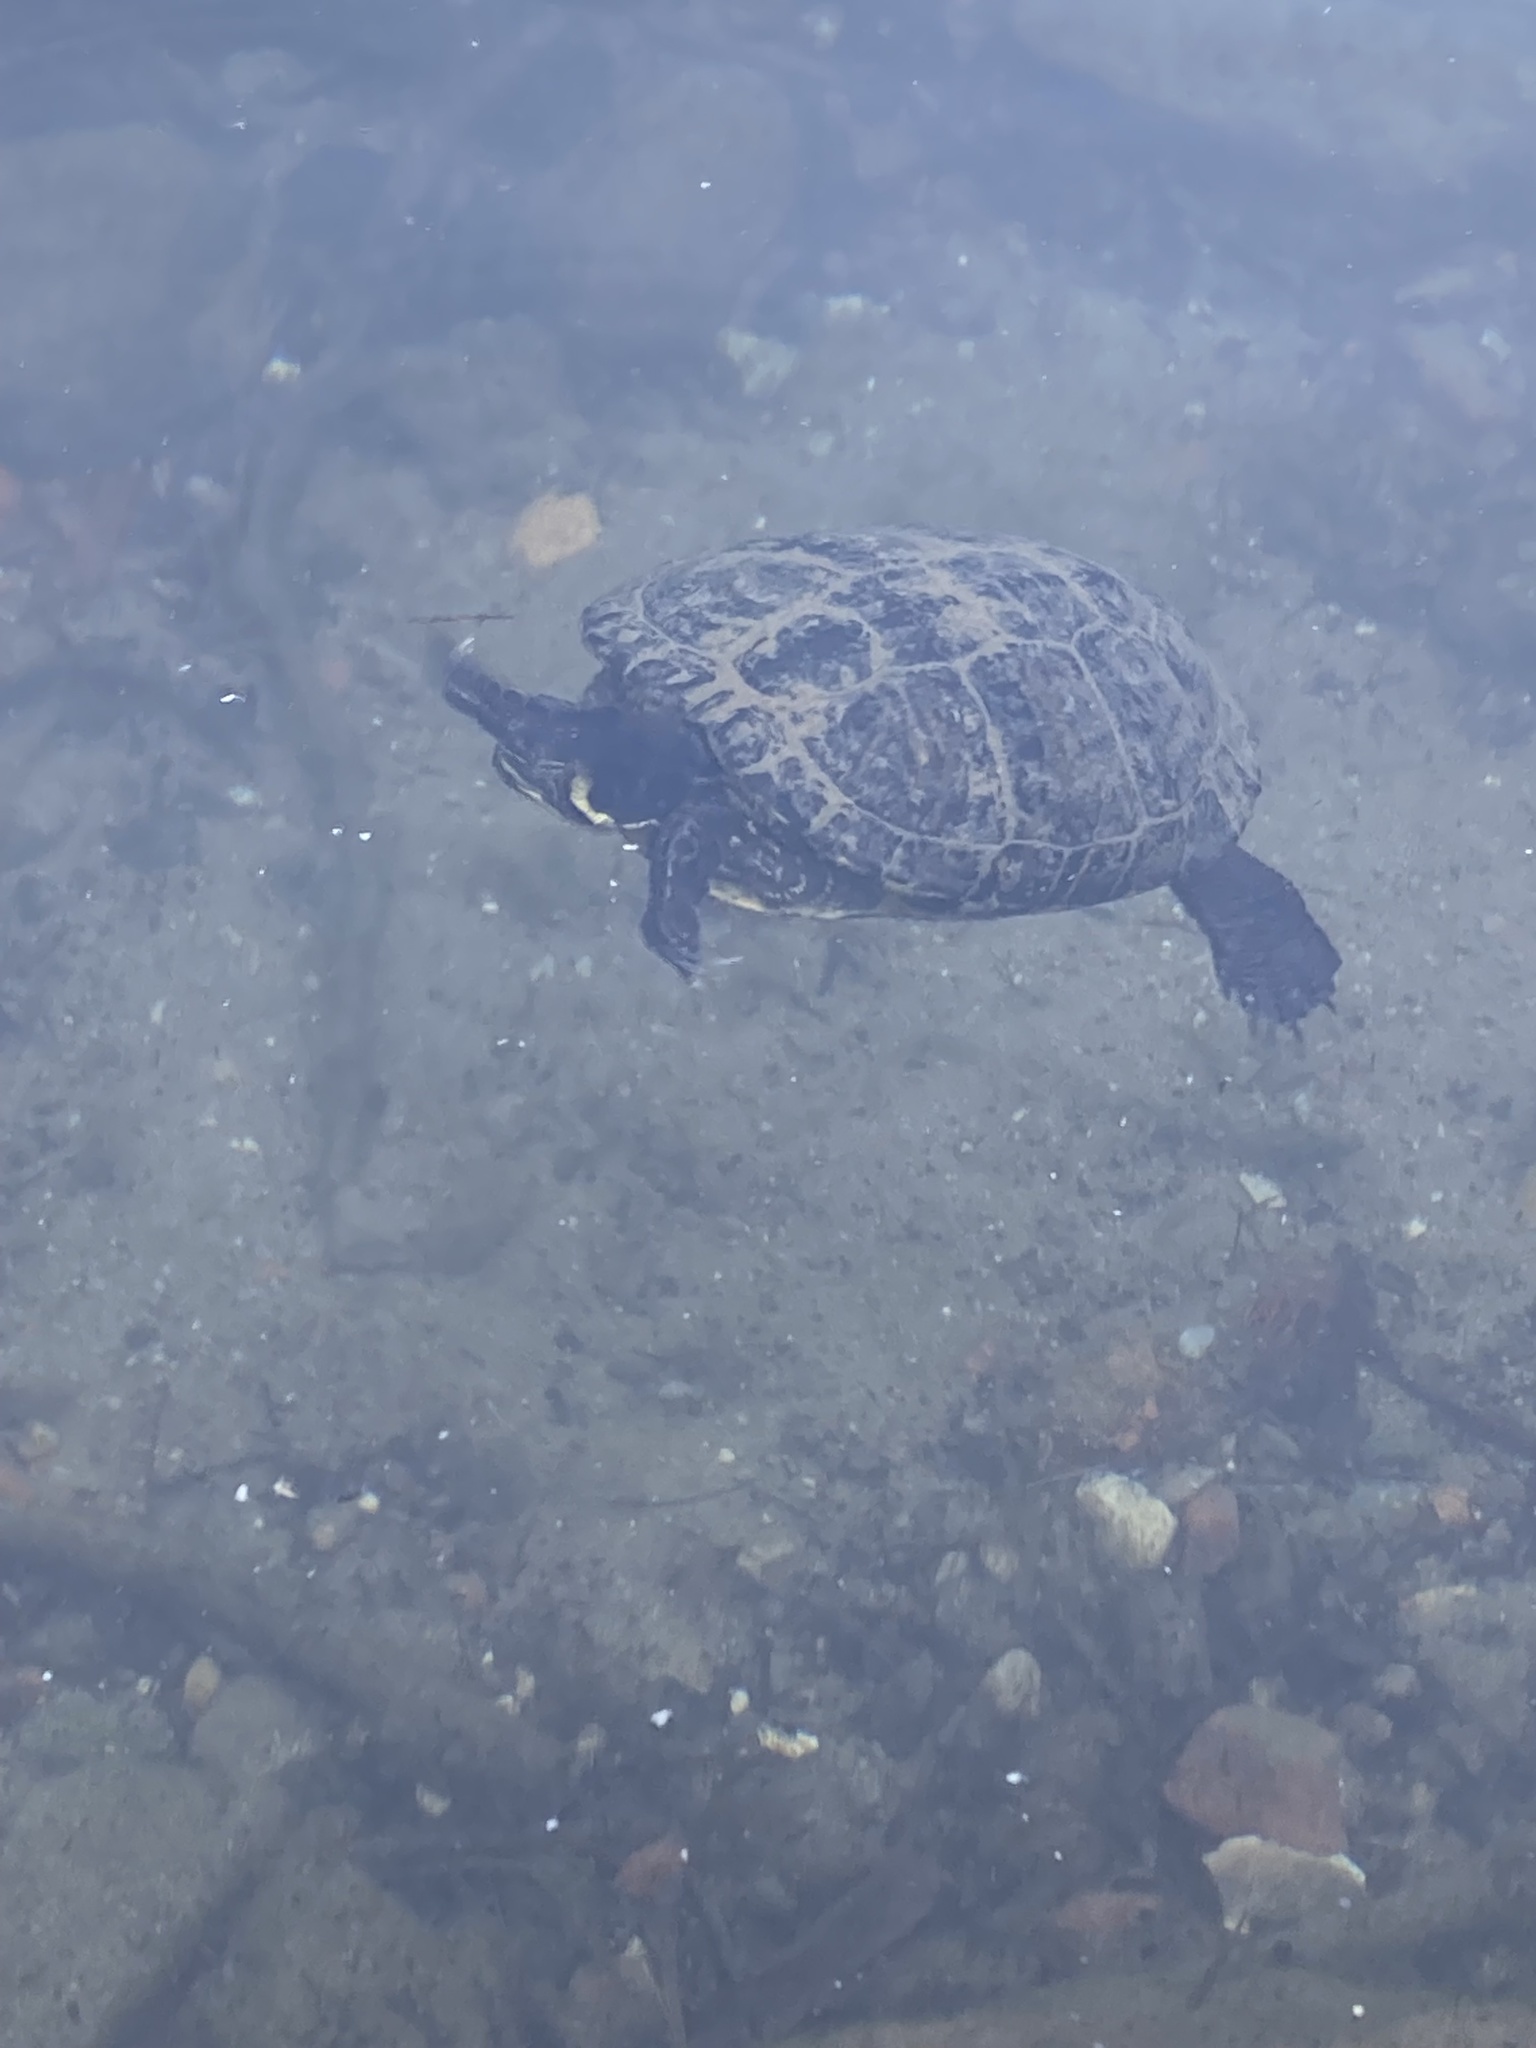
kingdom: Animalia
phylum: Chordata
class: Testudines
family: Emydidae
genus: Trachemys
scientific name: Trachemys scripta
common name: Slider
